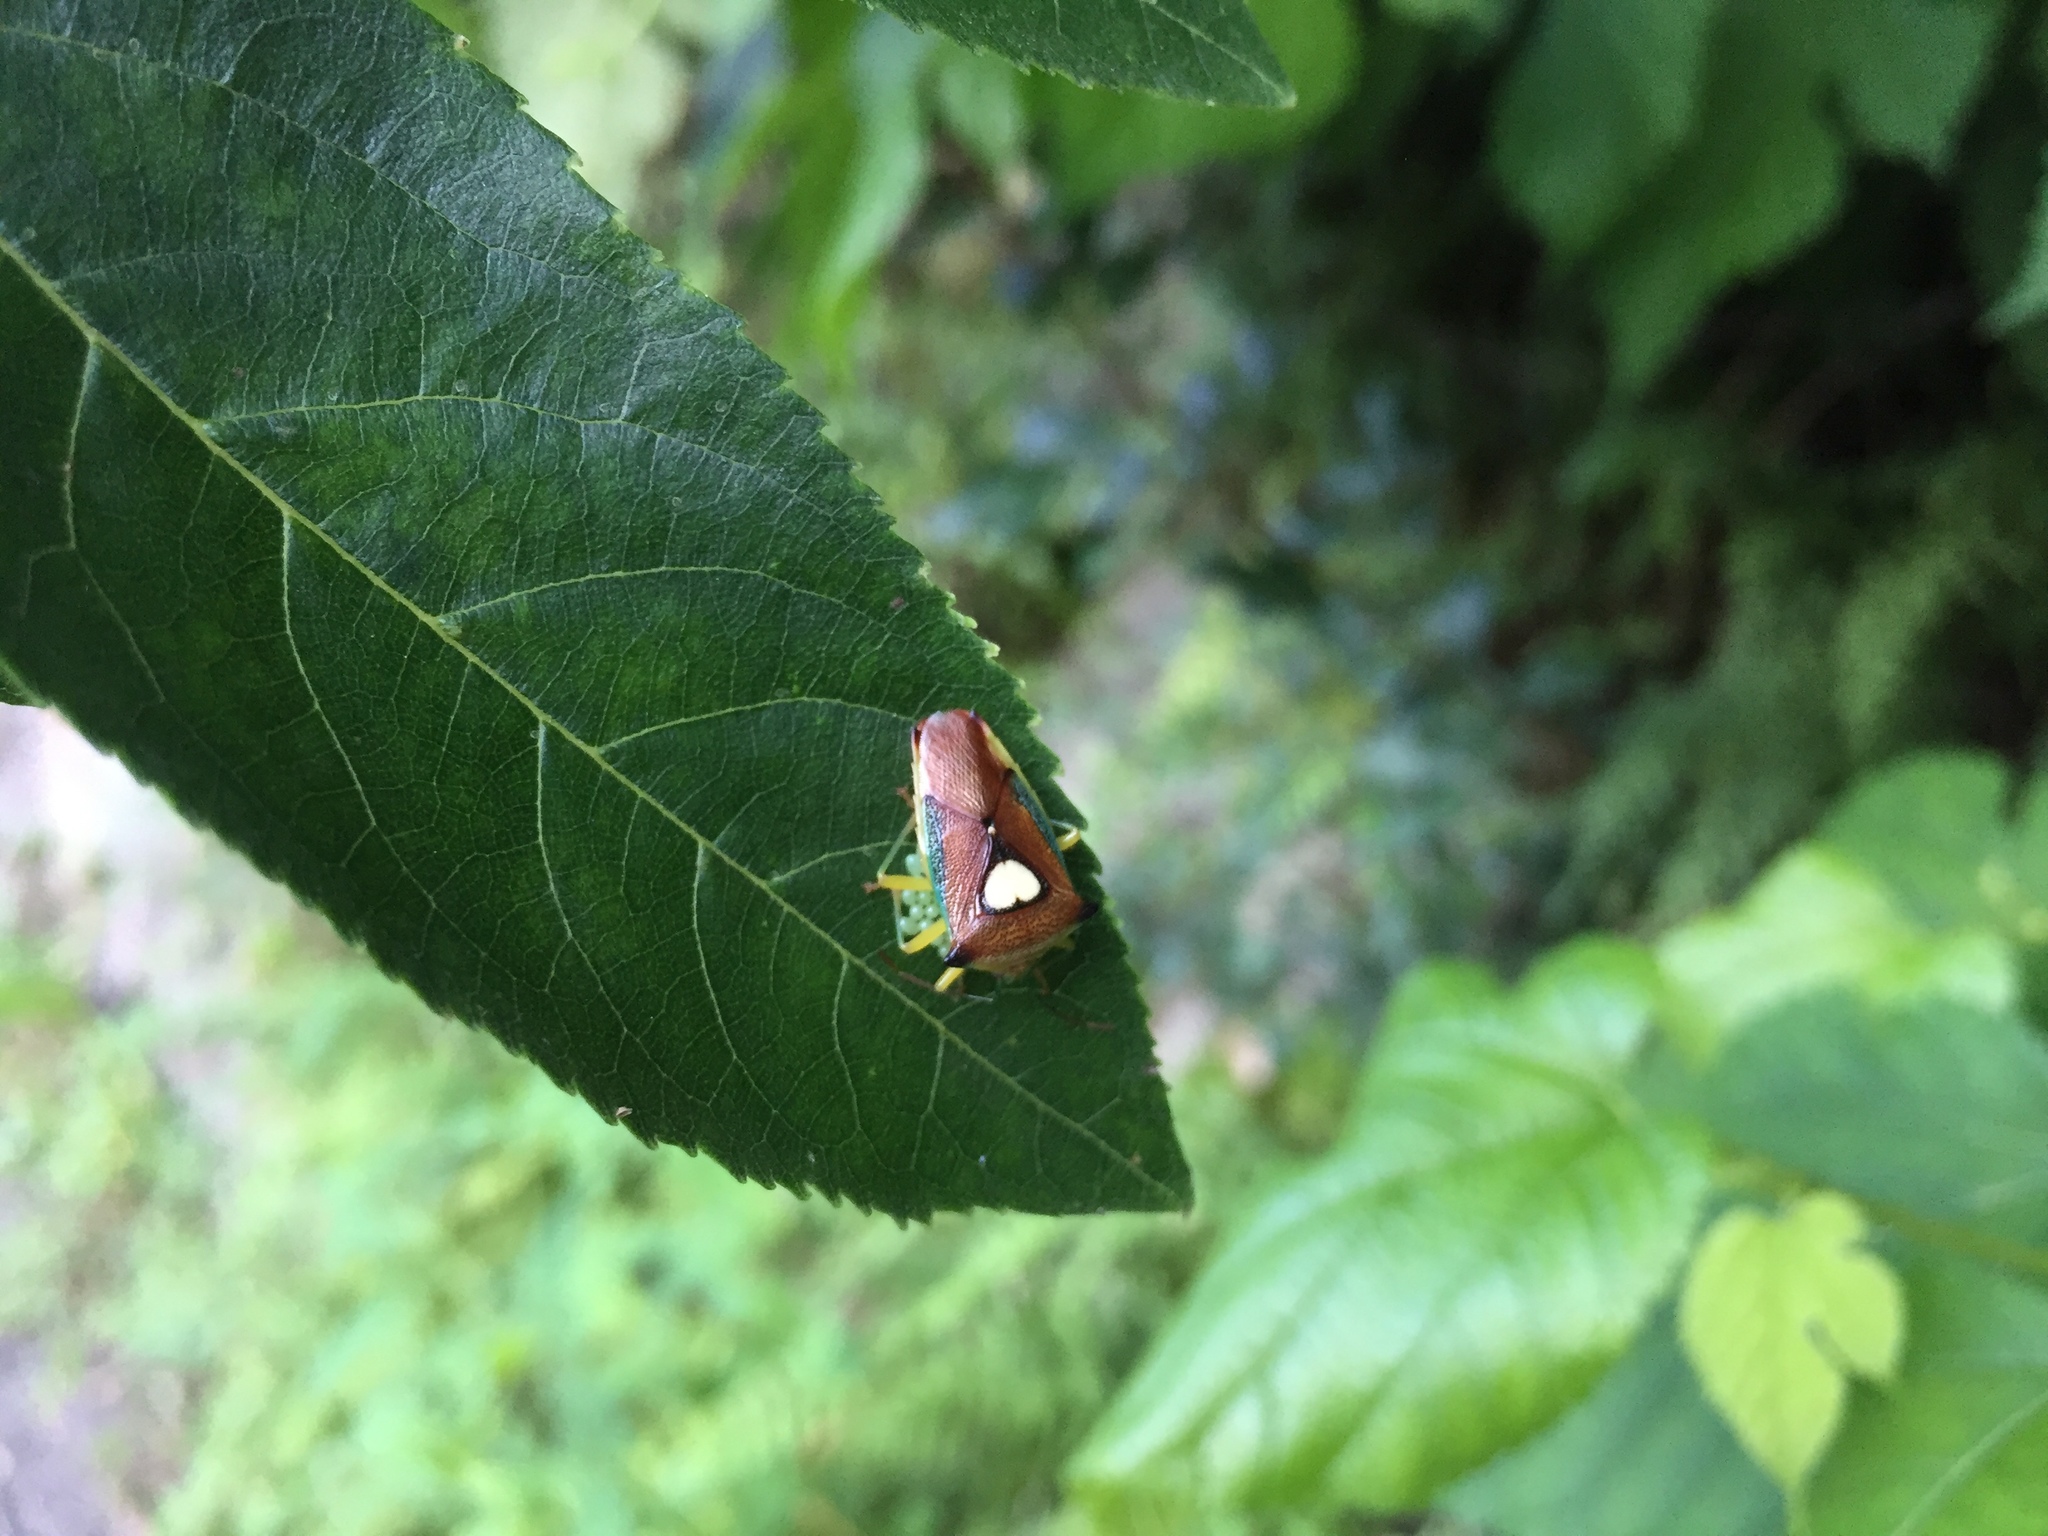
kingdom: Animalia
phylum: Arthropoda
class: Insecta
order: Hemiptera
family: Acanthosomatidae
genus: Sastragala
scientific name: Sastragala esakii
